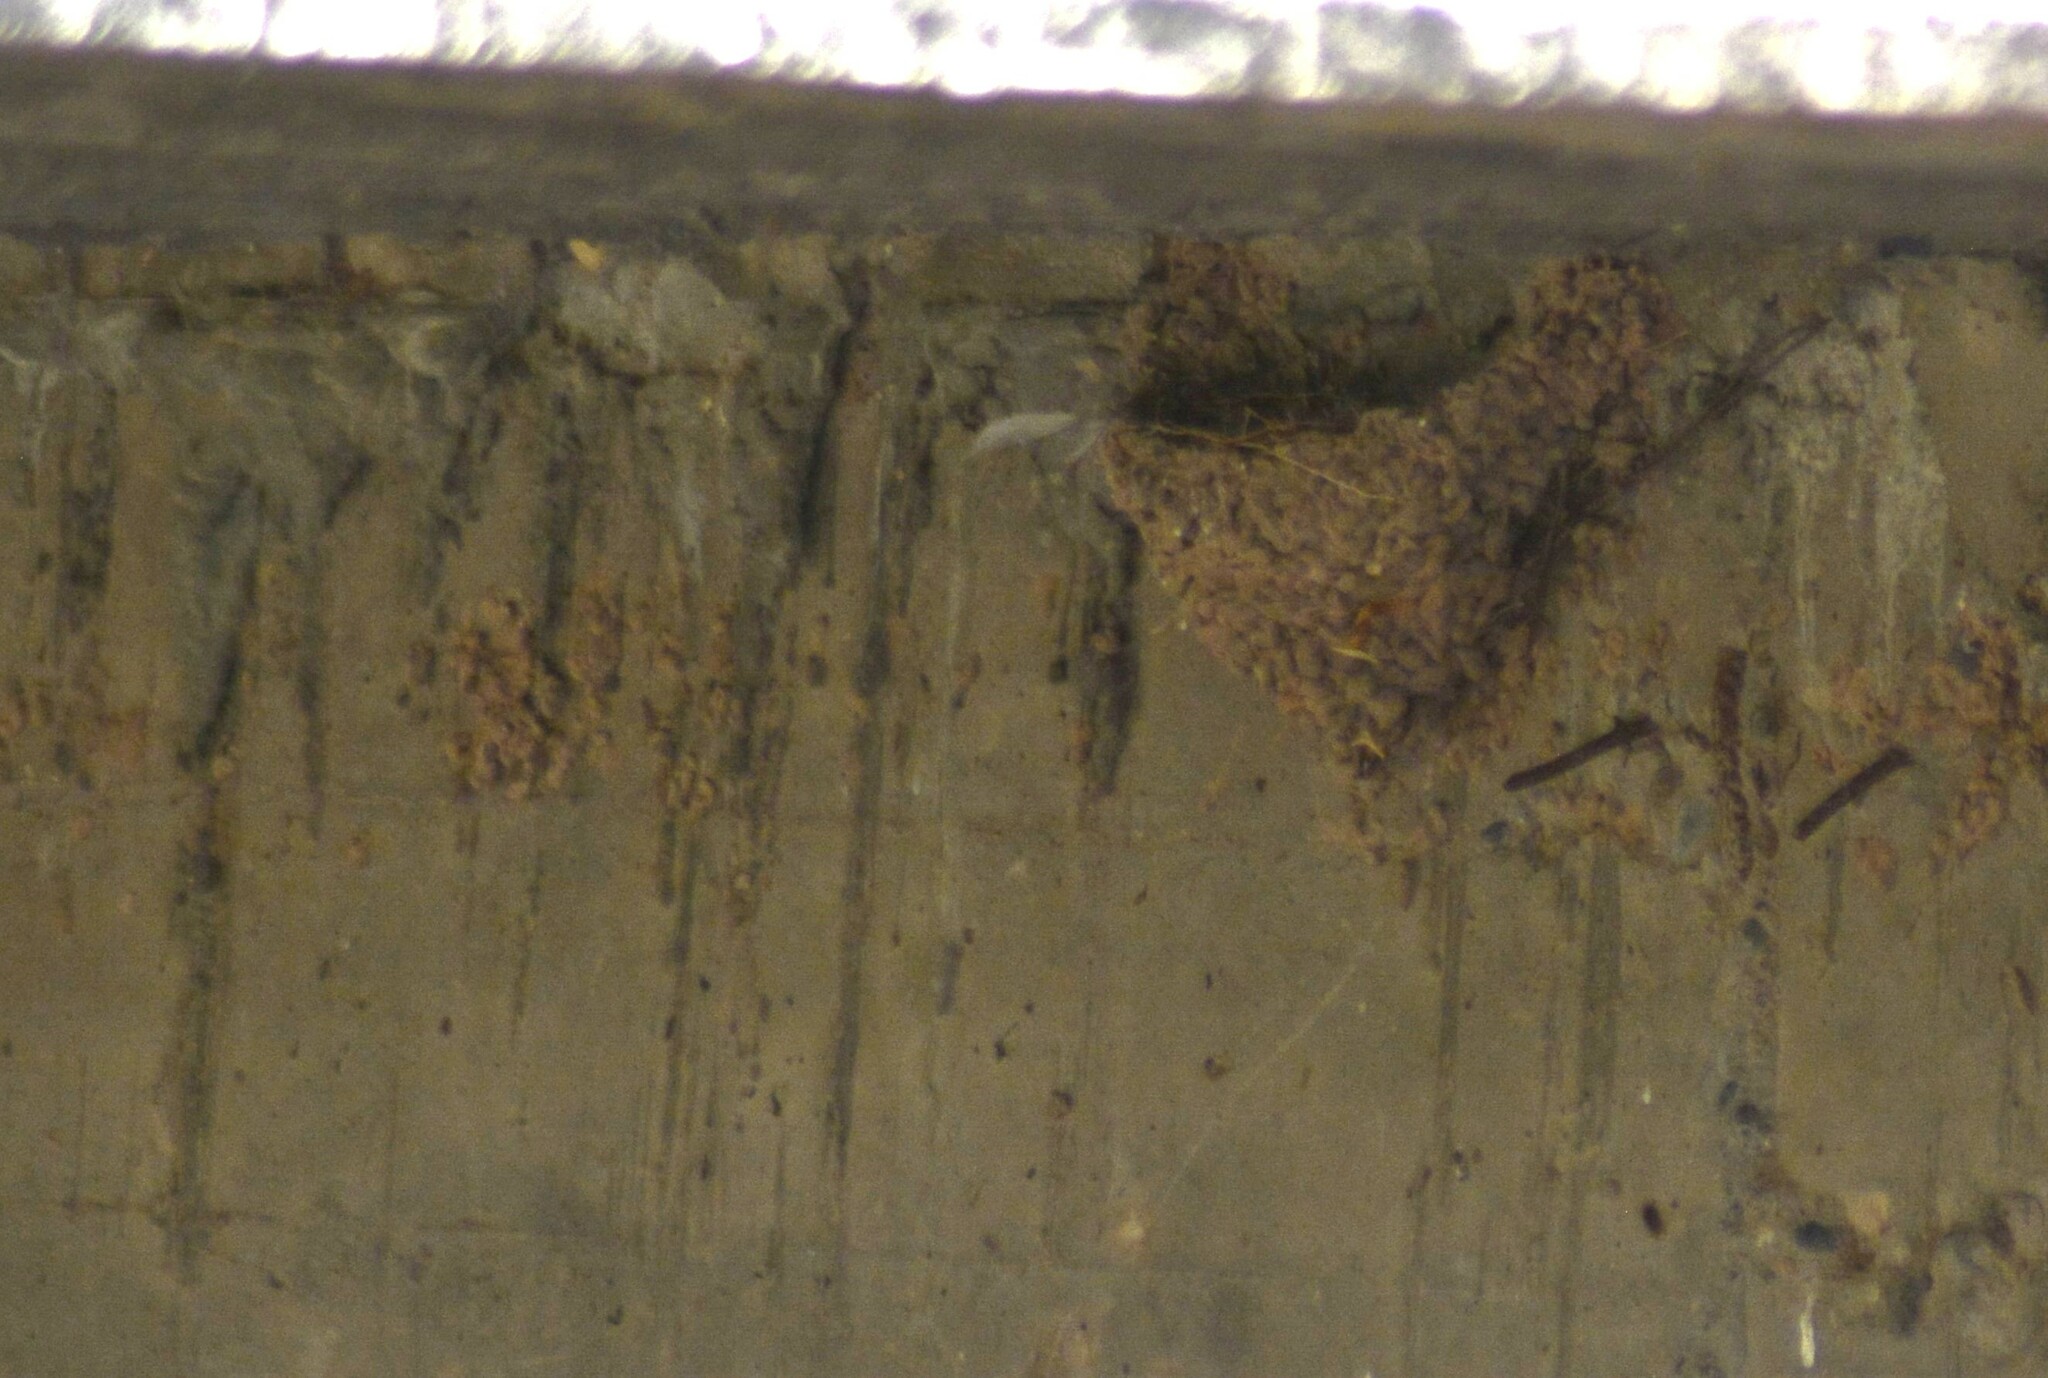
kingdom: Animalia
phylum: Chordata
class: Aves
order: Passeriformes
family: Hirundinidae
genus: Hirundo
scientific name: Hirundo rustica
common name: Barn swallow
